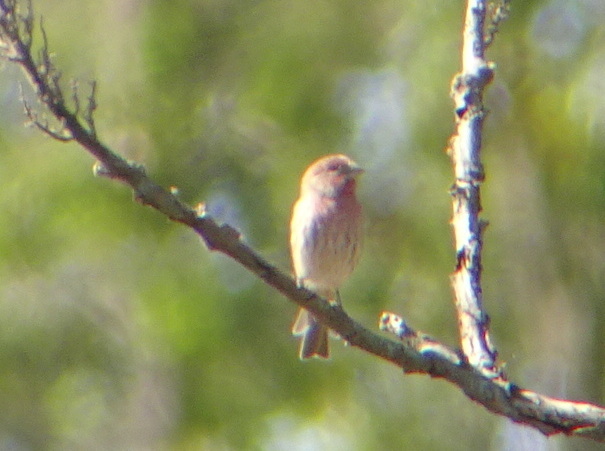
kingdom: Animalia
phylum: Chordata
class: Aves
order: Passeriformes
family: Fringillidae
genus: Haemorhous
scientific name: Haemorhous mexicanus
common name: House finch
